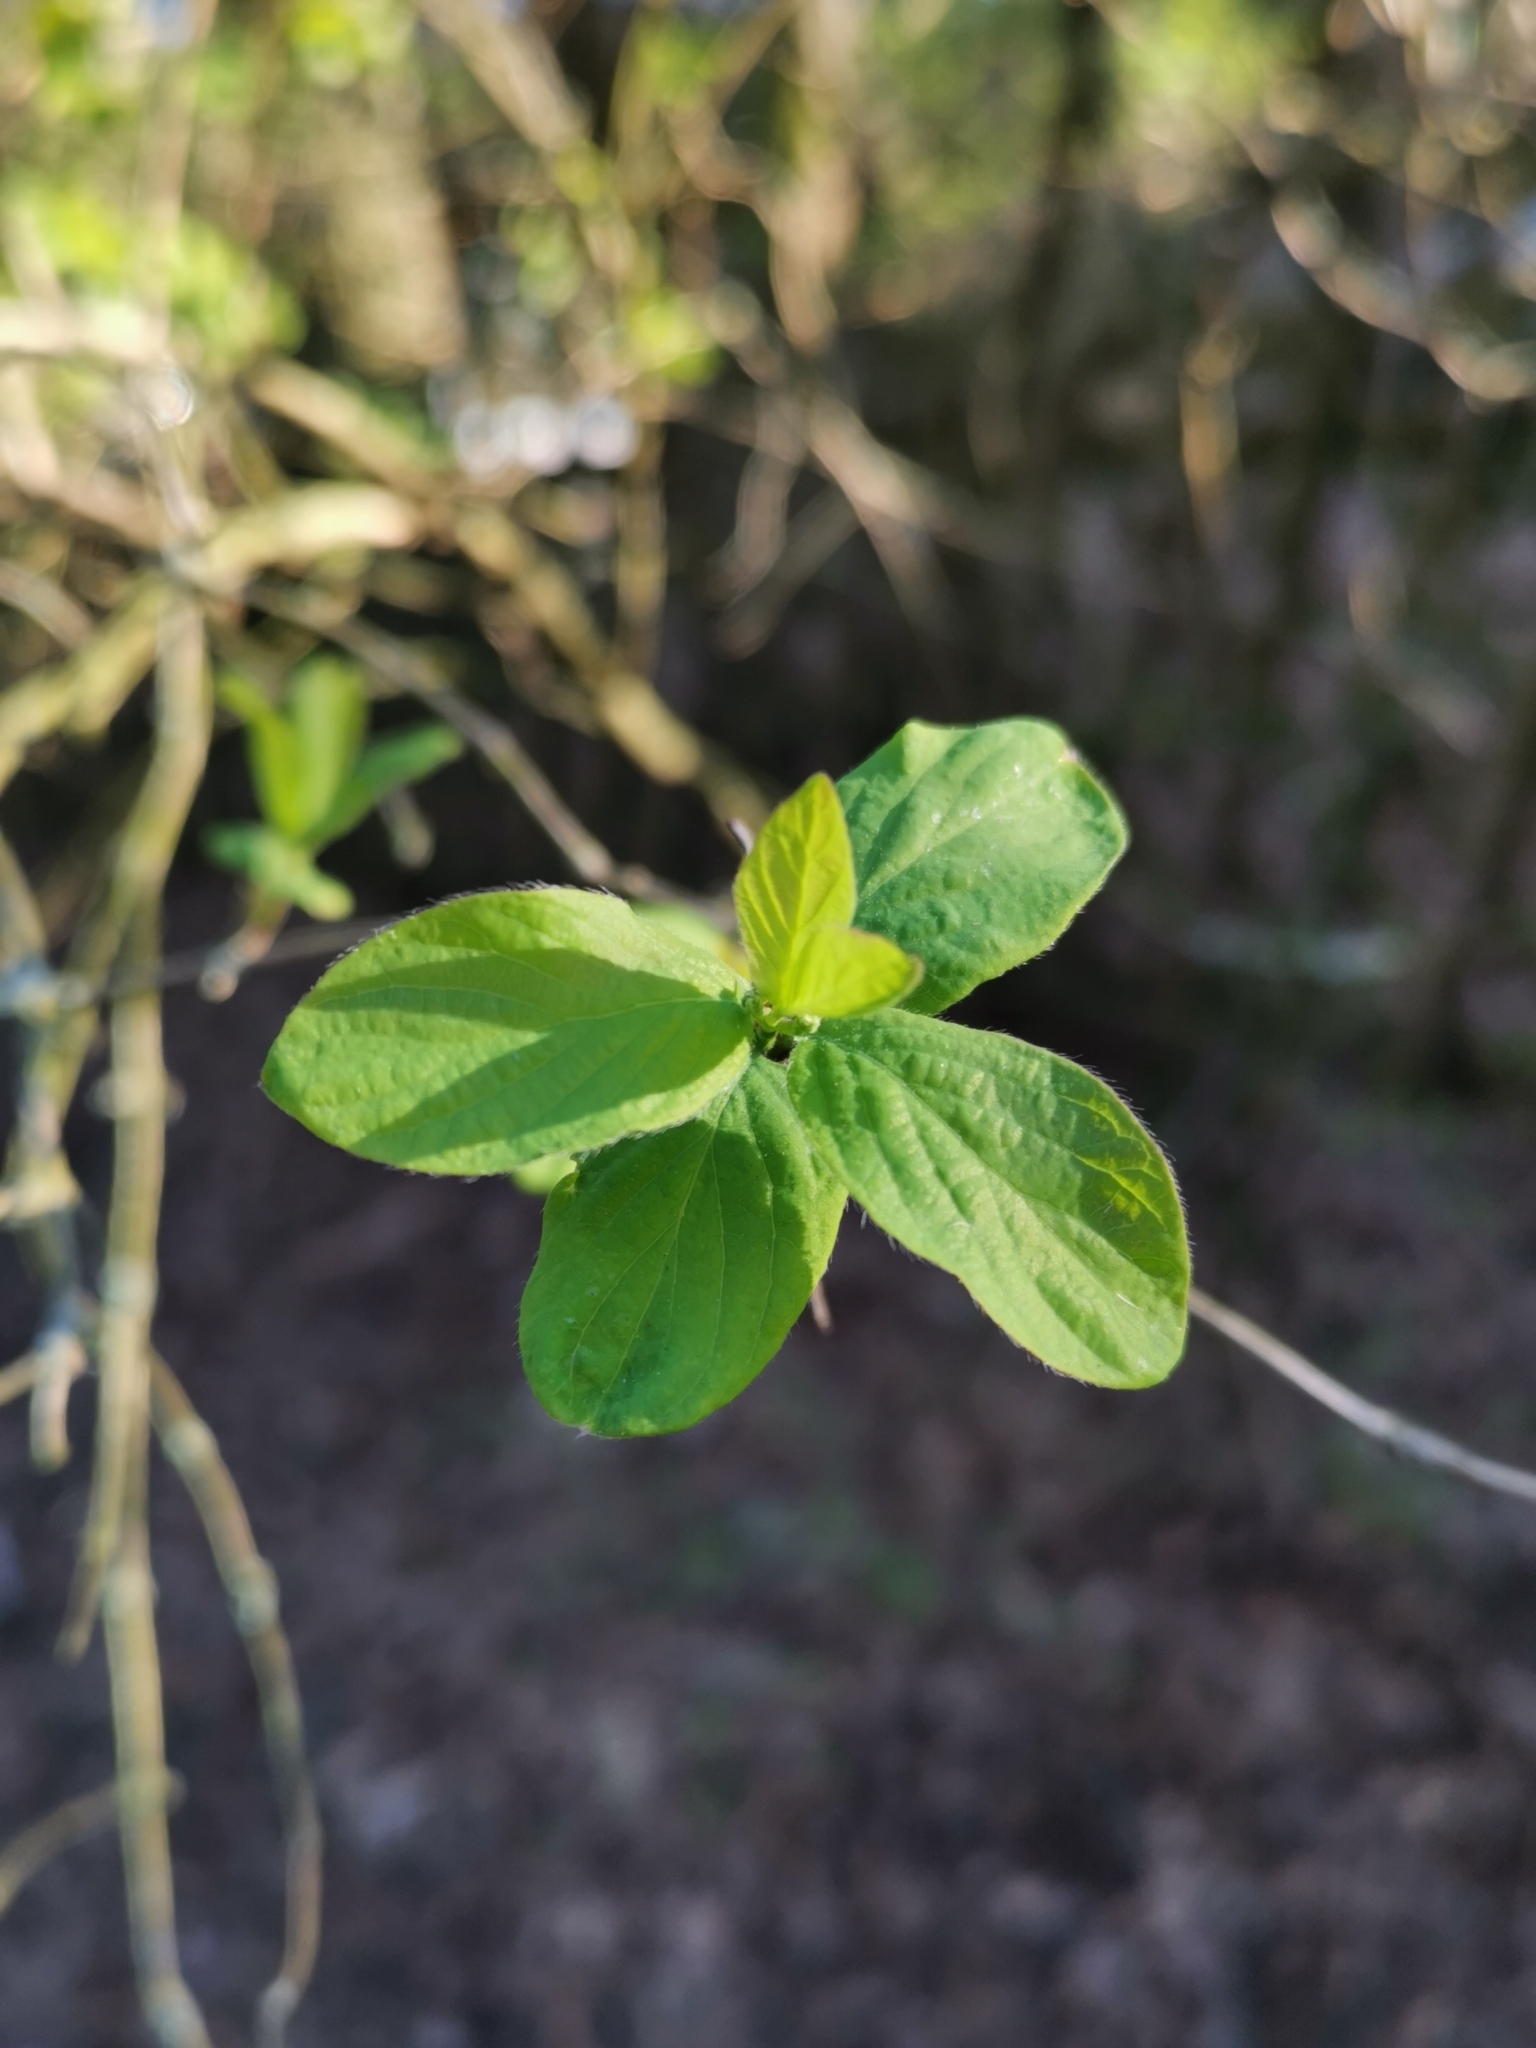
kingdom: Plantae
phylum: Tracheophyta
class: Magnoliopsida
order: Dipsacales
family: Caprifoliaceae
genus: Lonicera
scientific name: Lonicera xylosteum
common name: Fly honeysuckle
